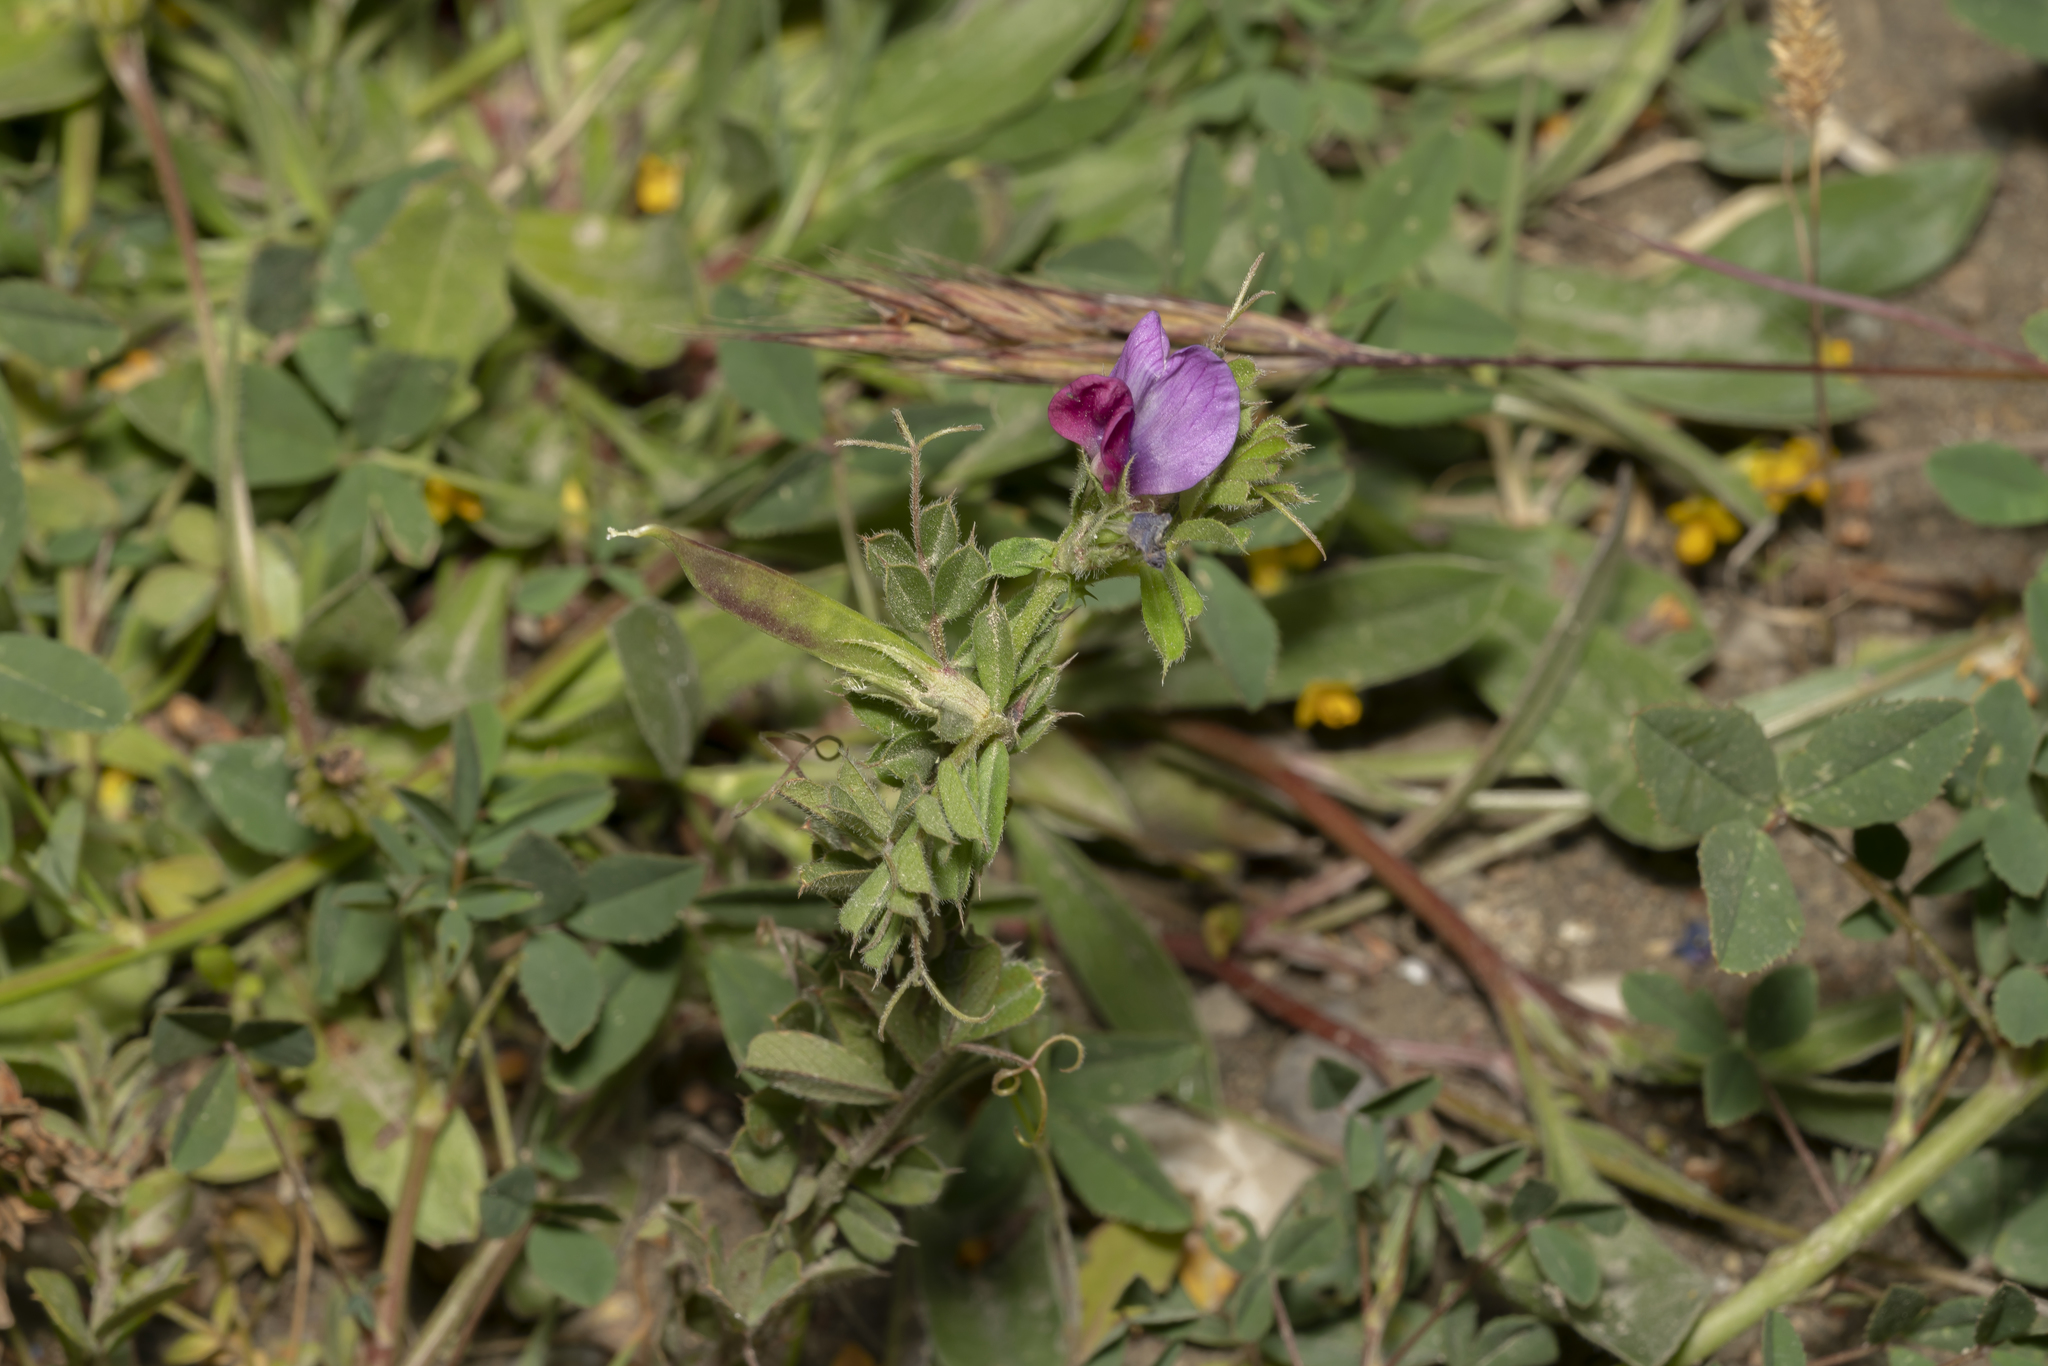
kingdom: Plantae
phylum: Tracheophyta
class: Magnoliopsida
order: Fabales
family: Fabaceae
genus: Vicia
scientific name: Vicia sativa
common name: Garden vetch
